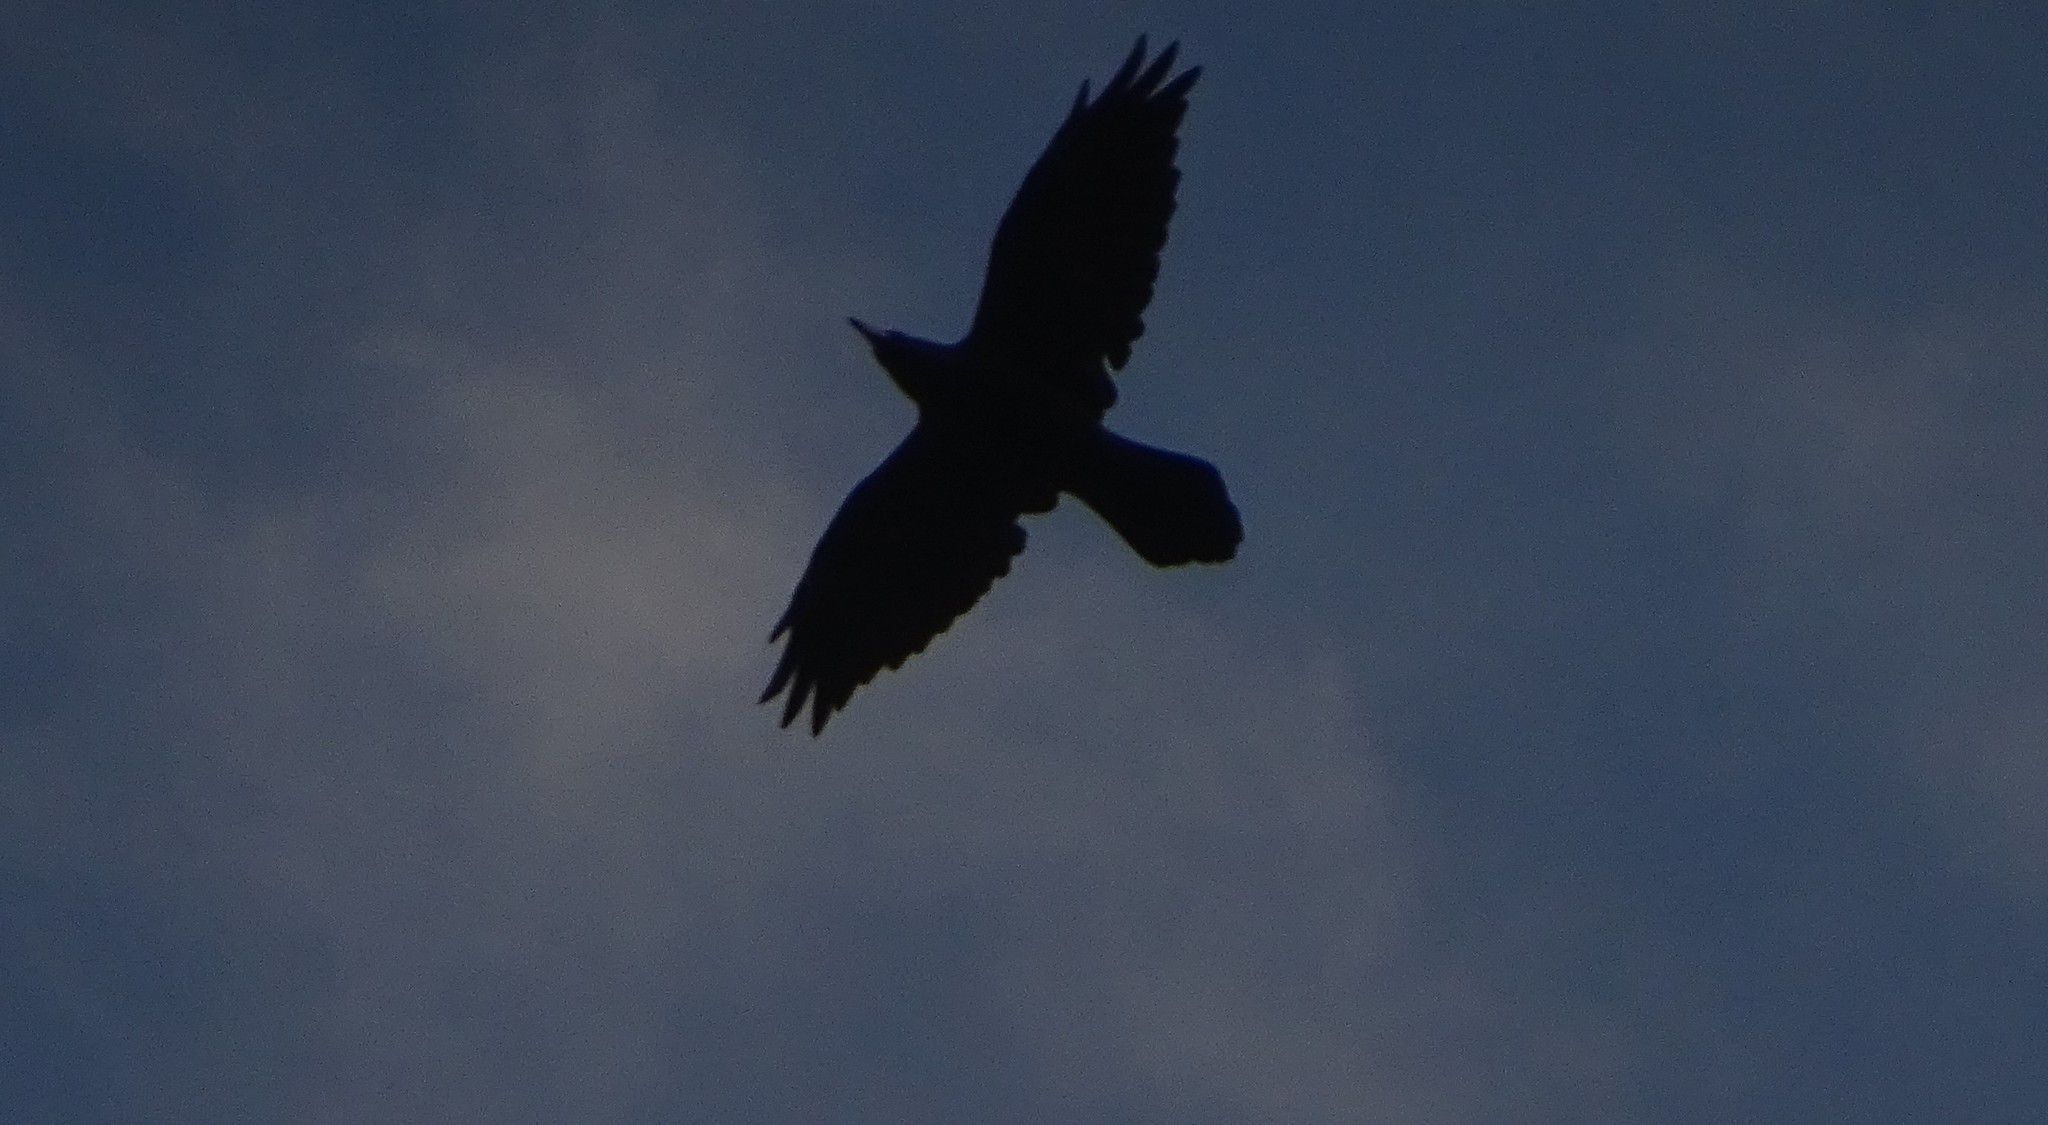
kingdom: Animalia
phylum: Chordata
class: Aves
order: Passeriformes
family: Corvidae
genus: Corvus
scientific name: Corvus corax
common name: Common raven
